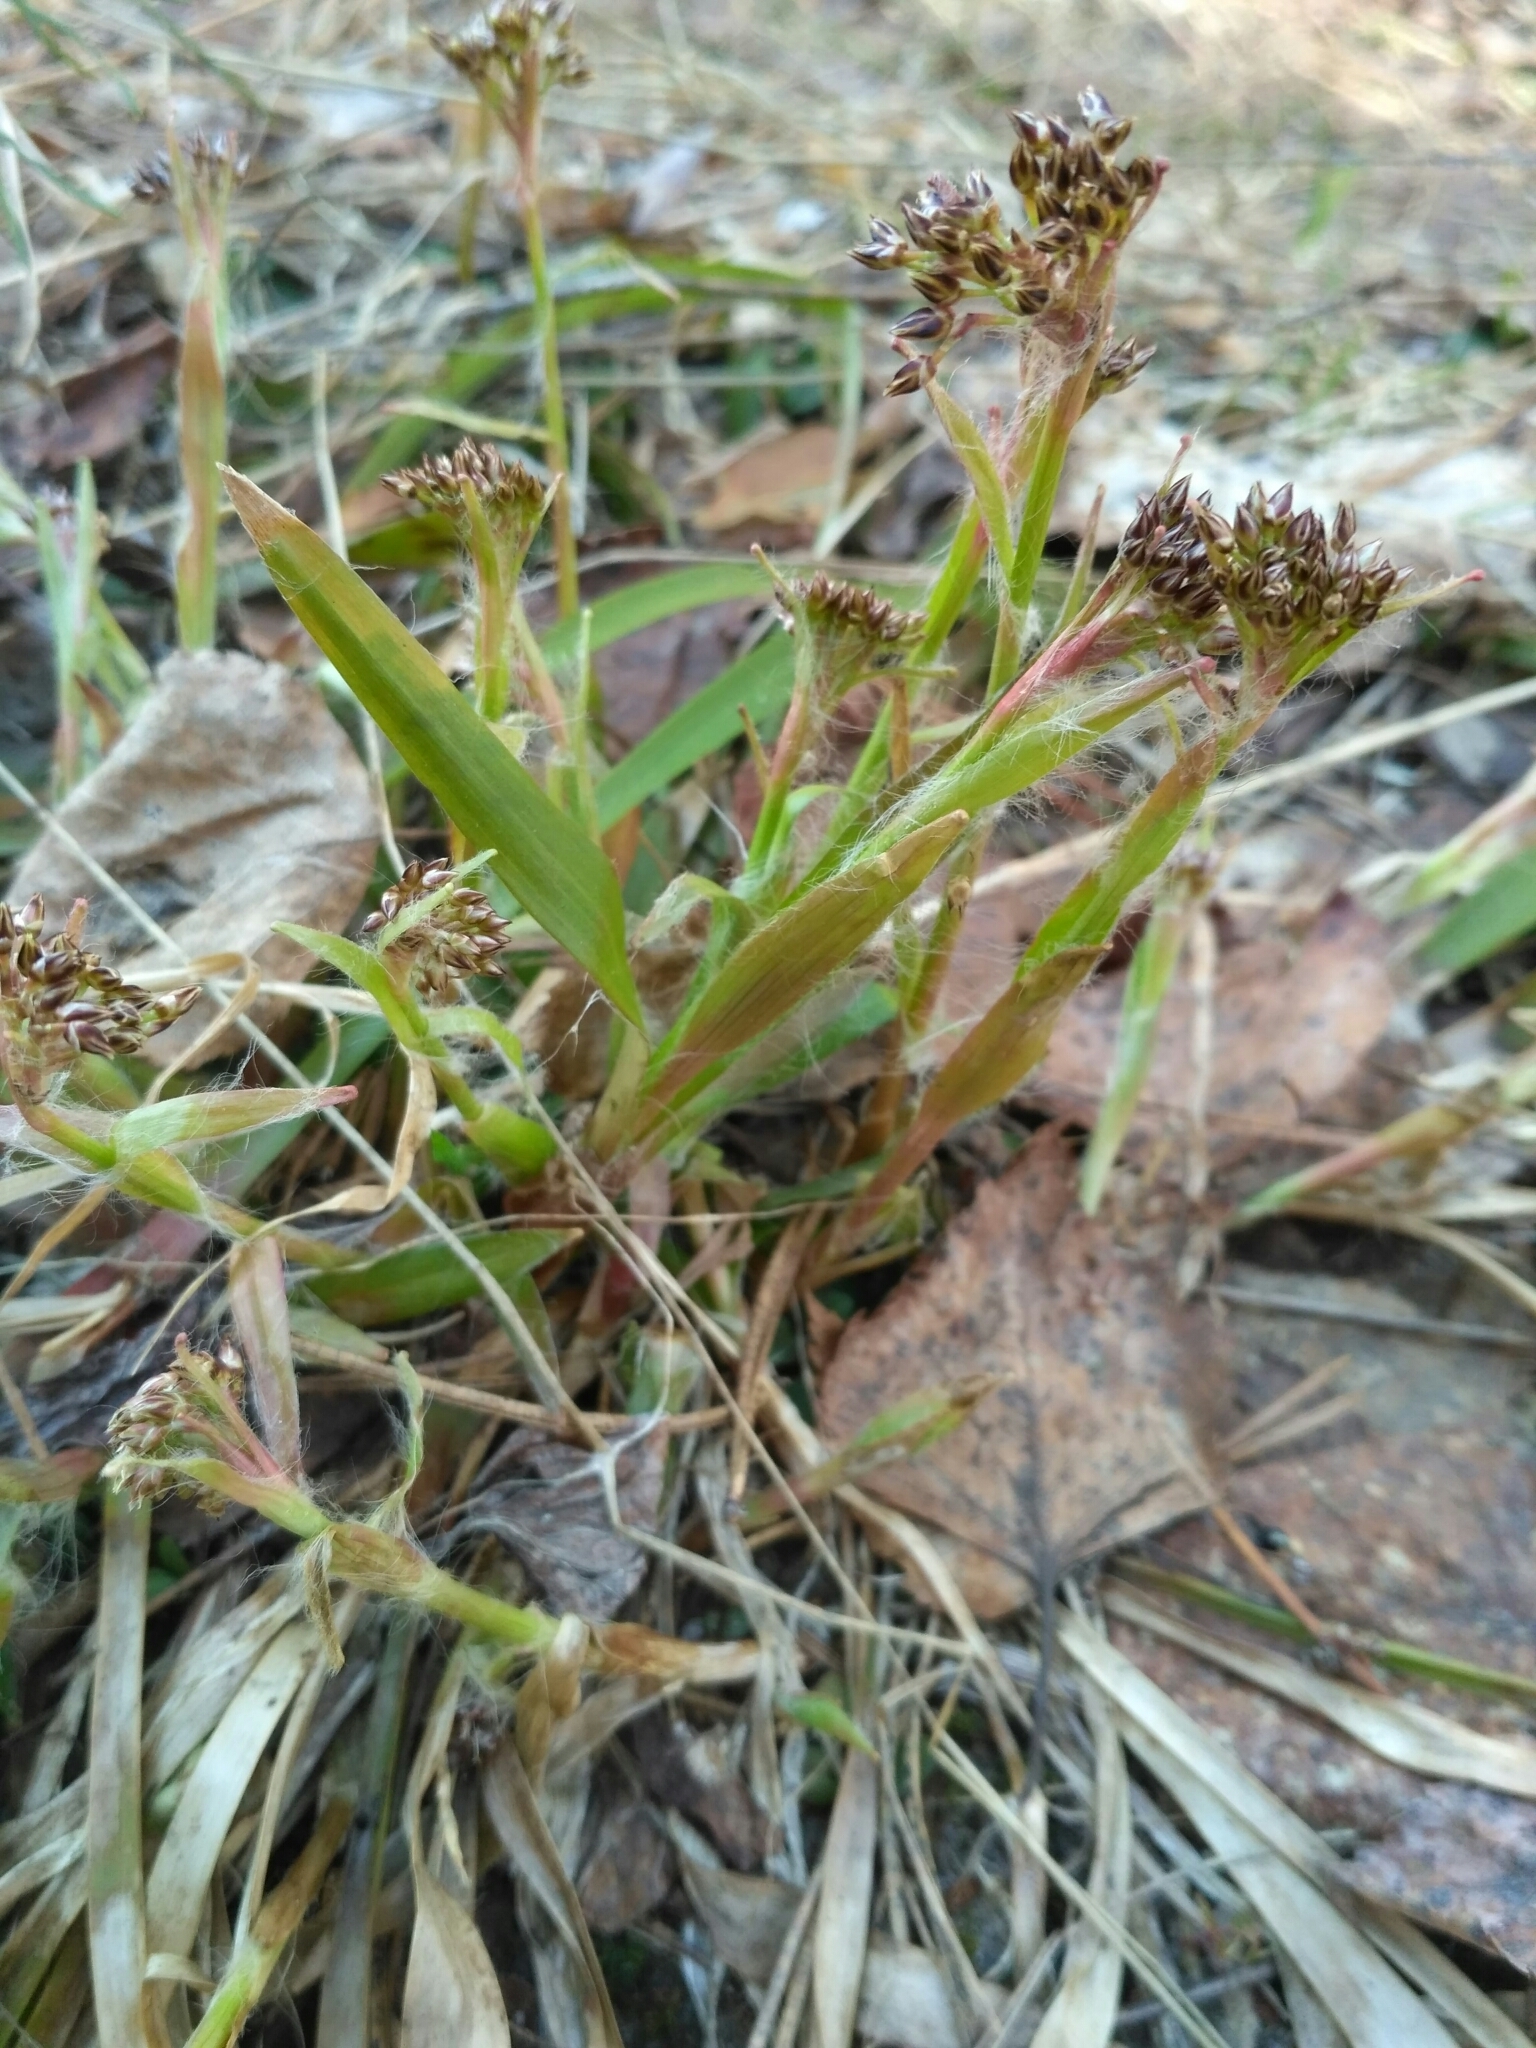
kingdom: Plantae
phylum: Tracheophyta
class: Liliopsida
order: Poales
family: Juncaceae
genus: Luzula
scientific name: Luzula pilosa
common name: Hairy wood-rush
